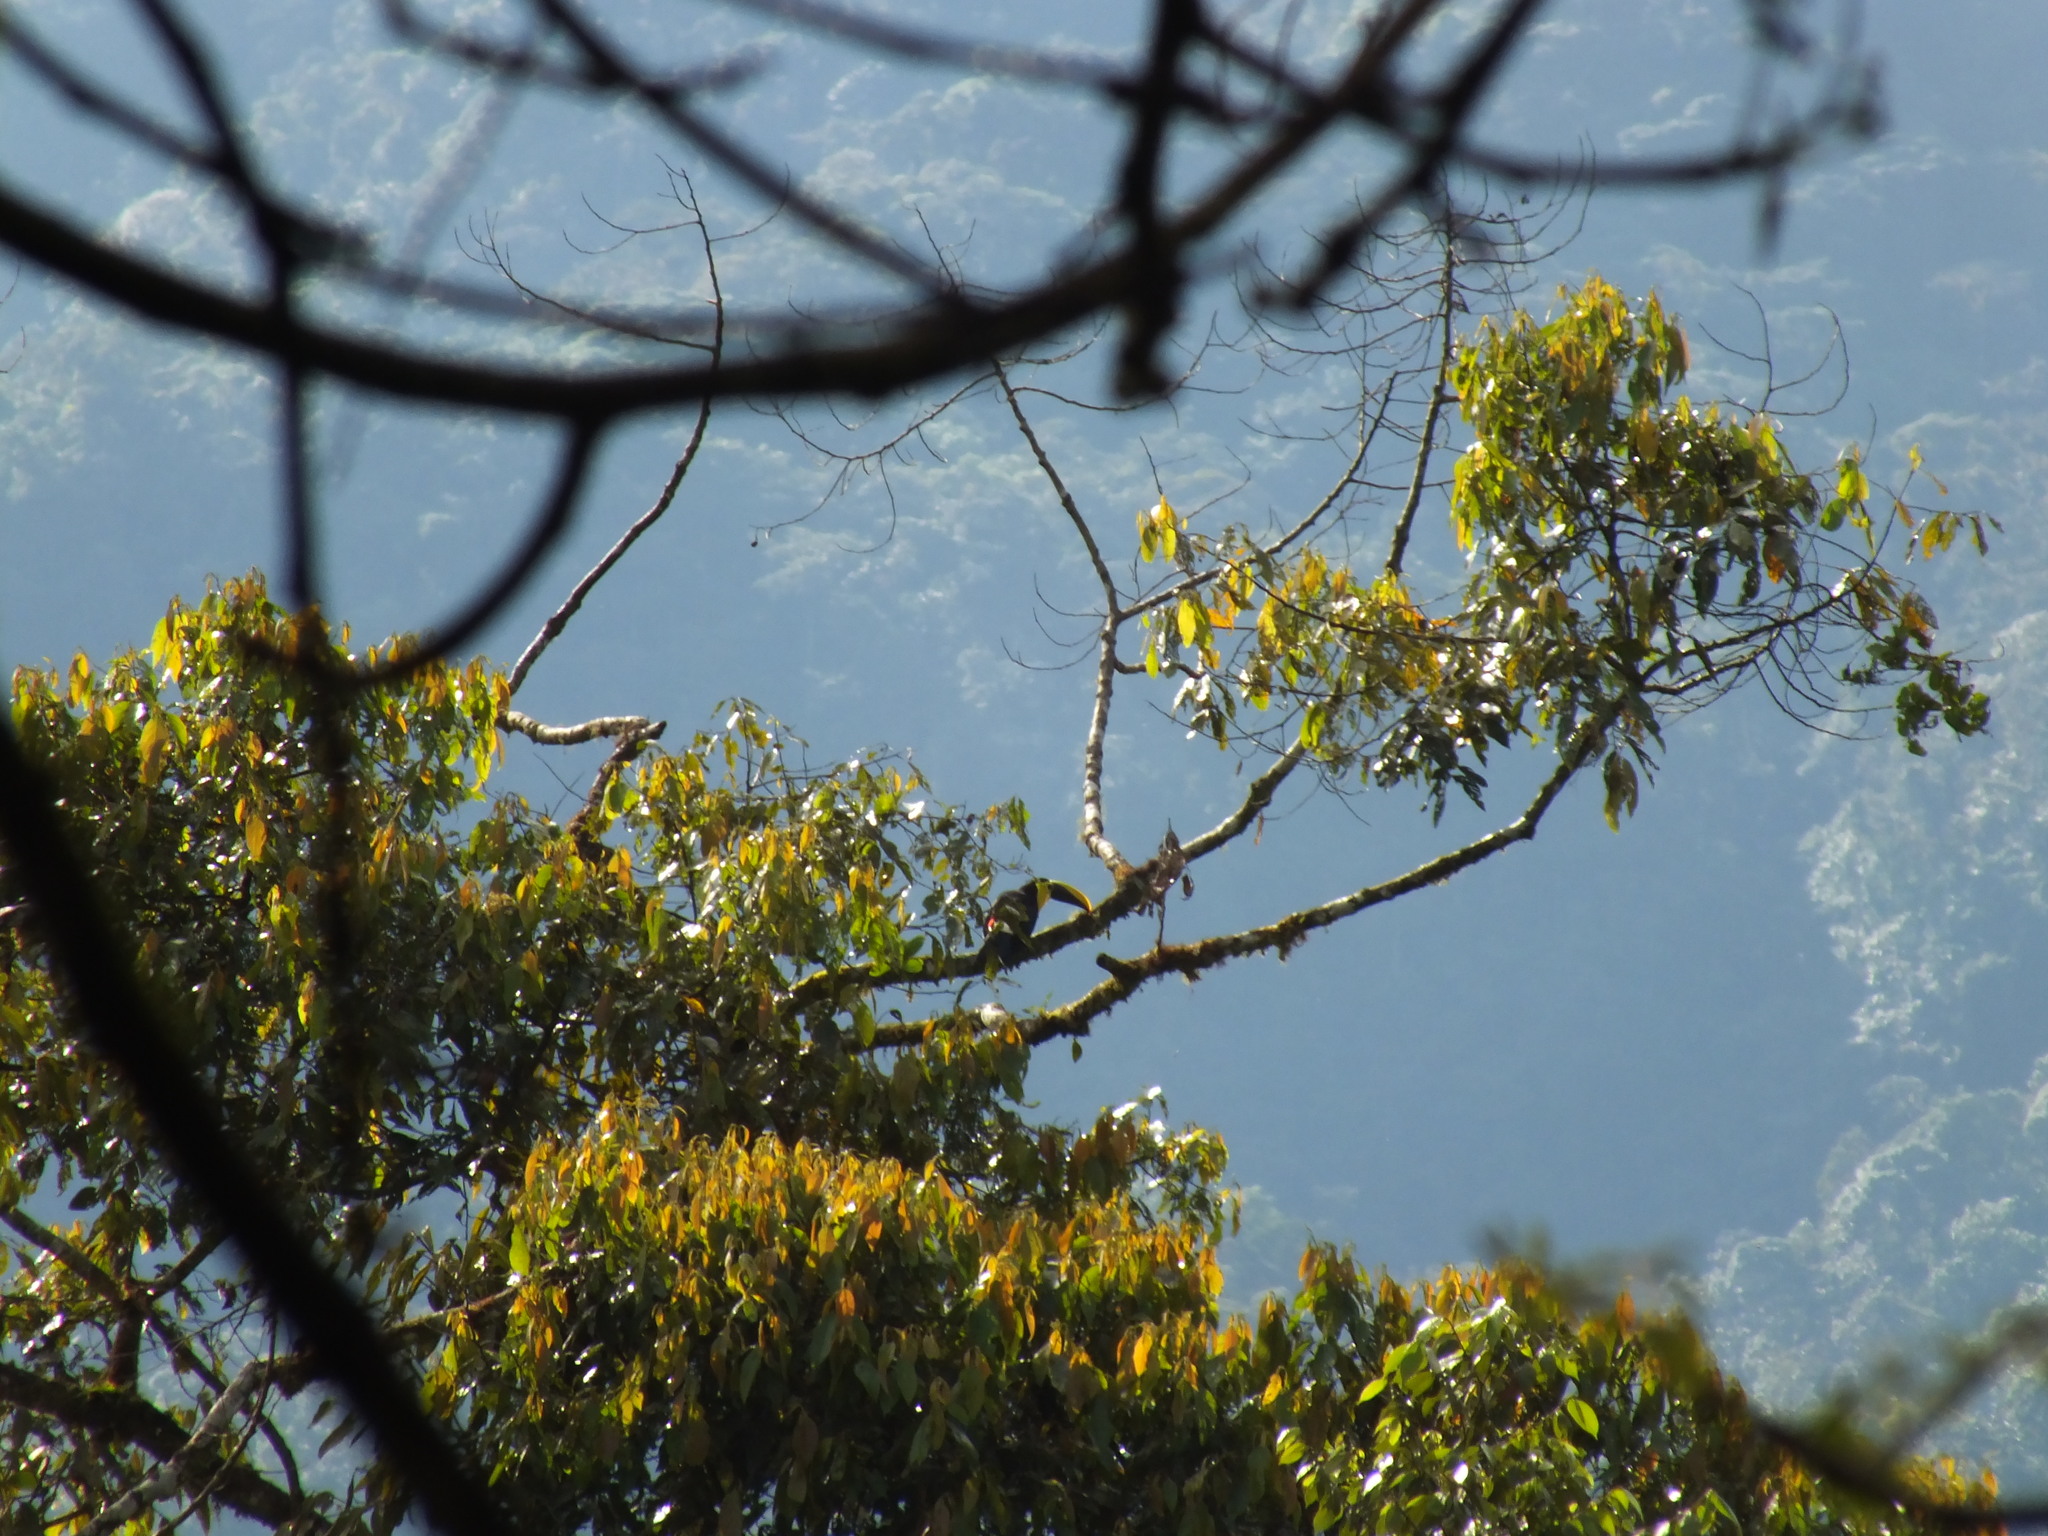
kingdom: Animalia
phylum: Chordata
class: Aves
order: Piciformes
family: Ramphastidae
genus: Ramphastos
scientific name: Ramphastos ambiguus
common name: Yellow-throated toucan
